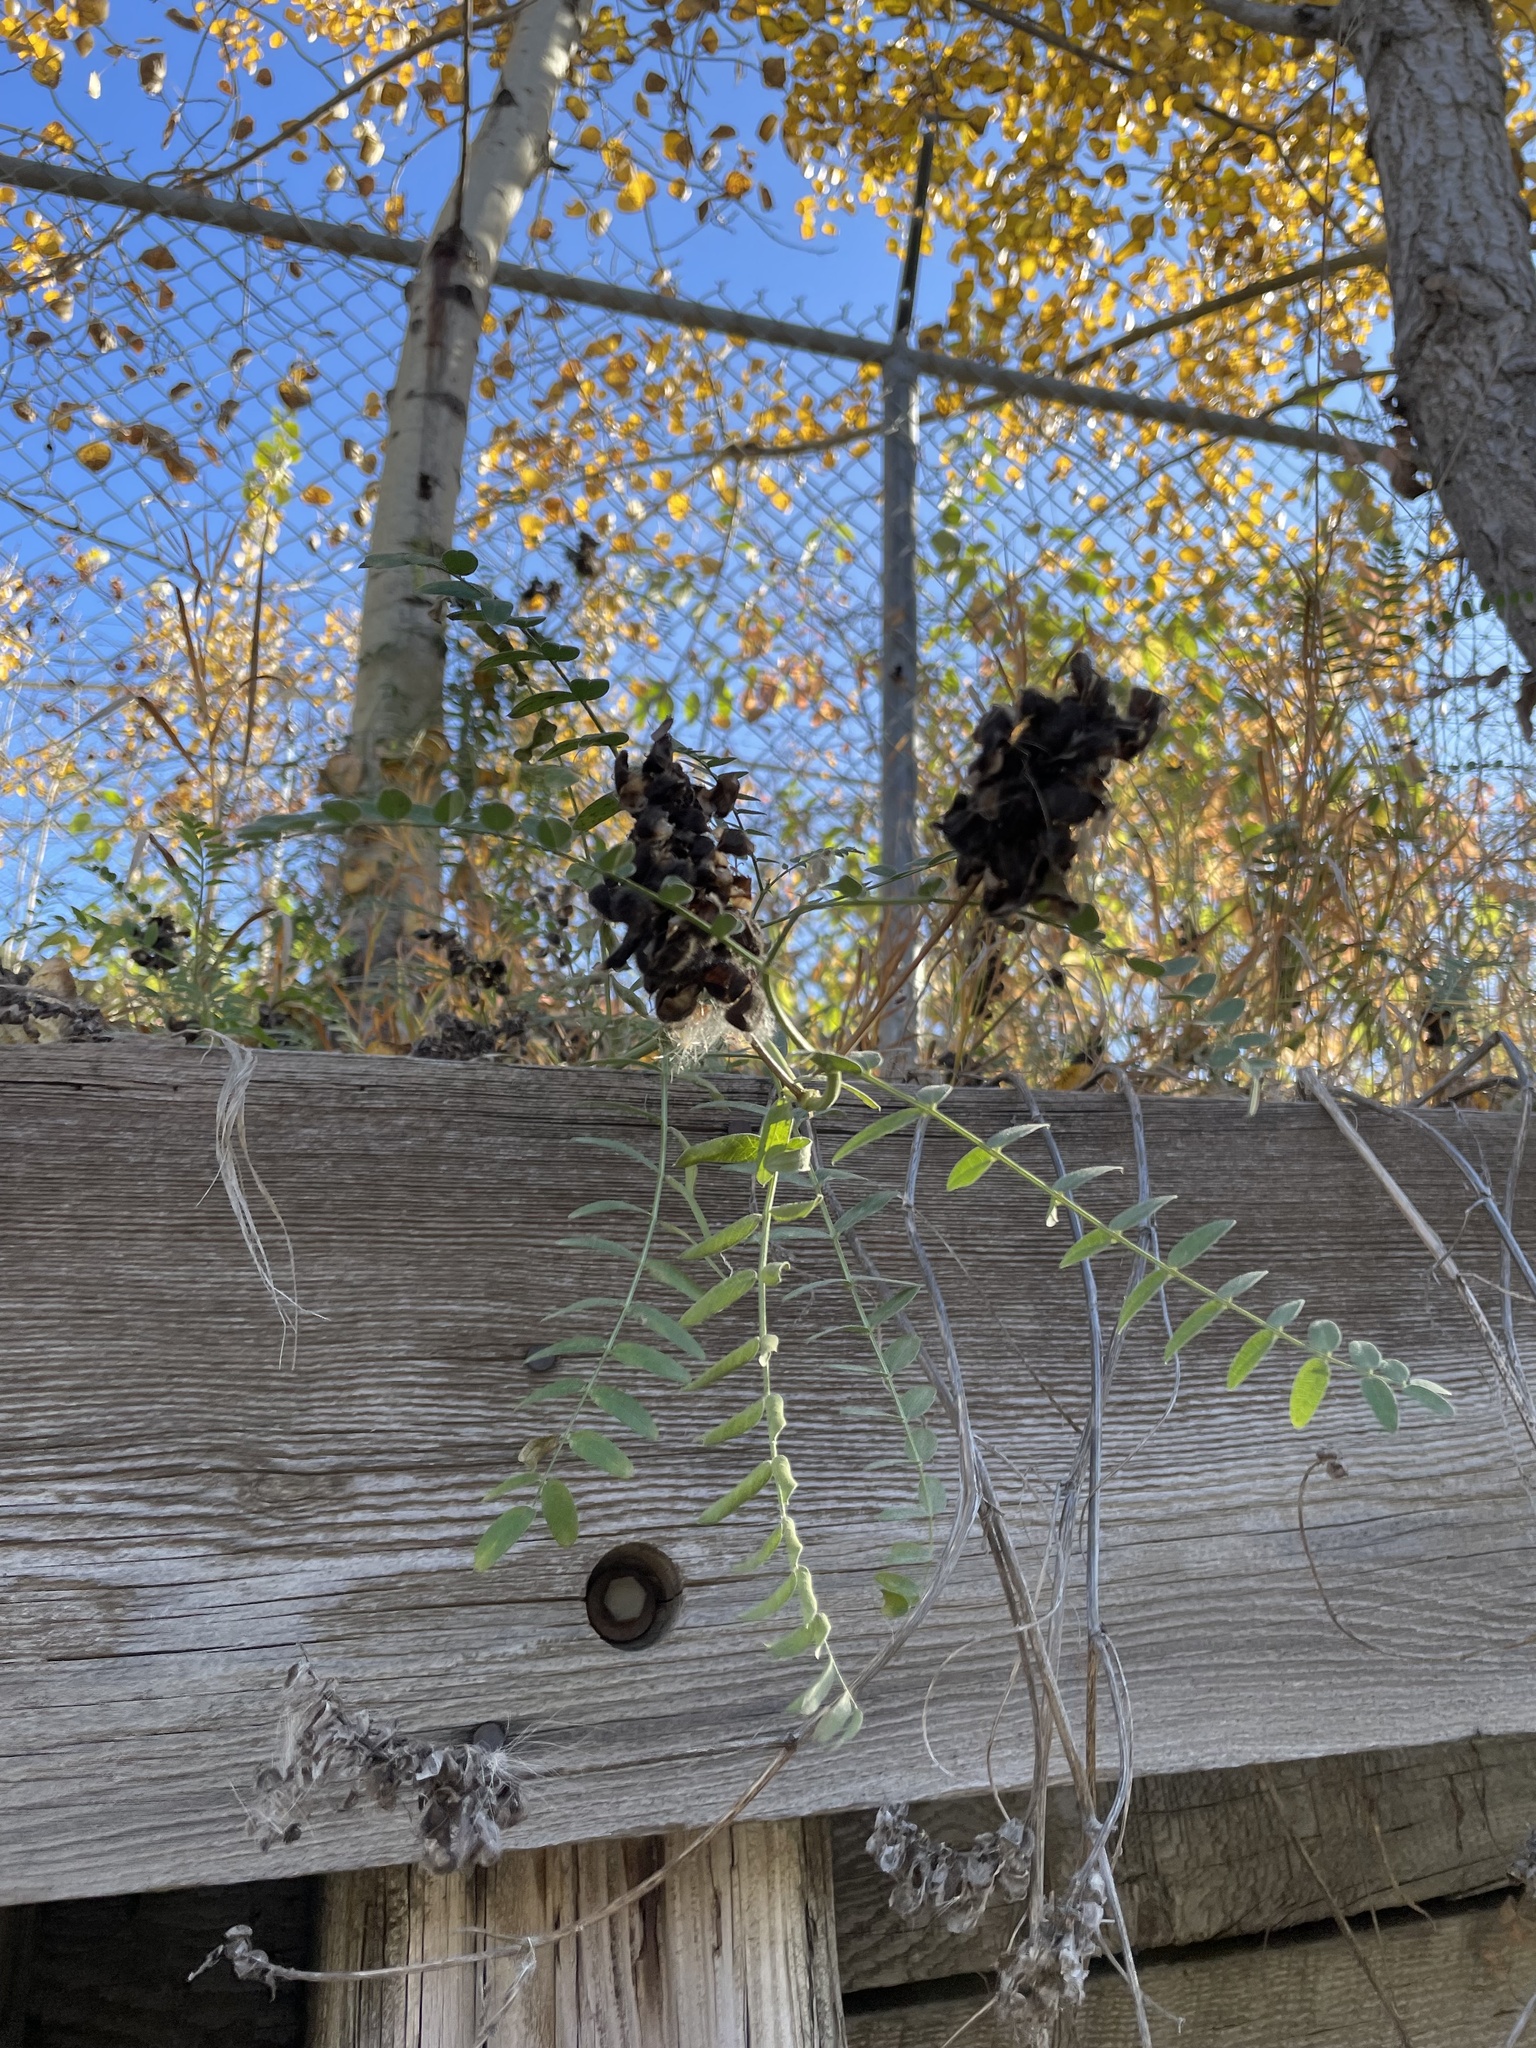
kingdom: Plantae
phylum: Tracheophyta
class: Magnoliopsida
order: Fabales
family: Fabaceae
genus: Astragalus
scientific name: Astragalus cicer
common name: Chick-pea milk-vetch
